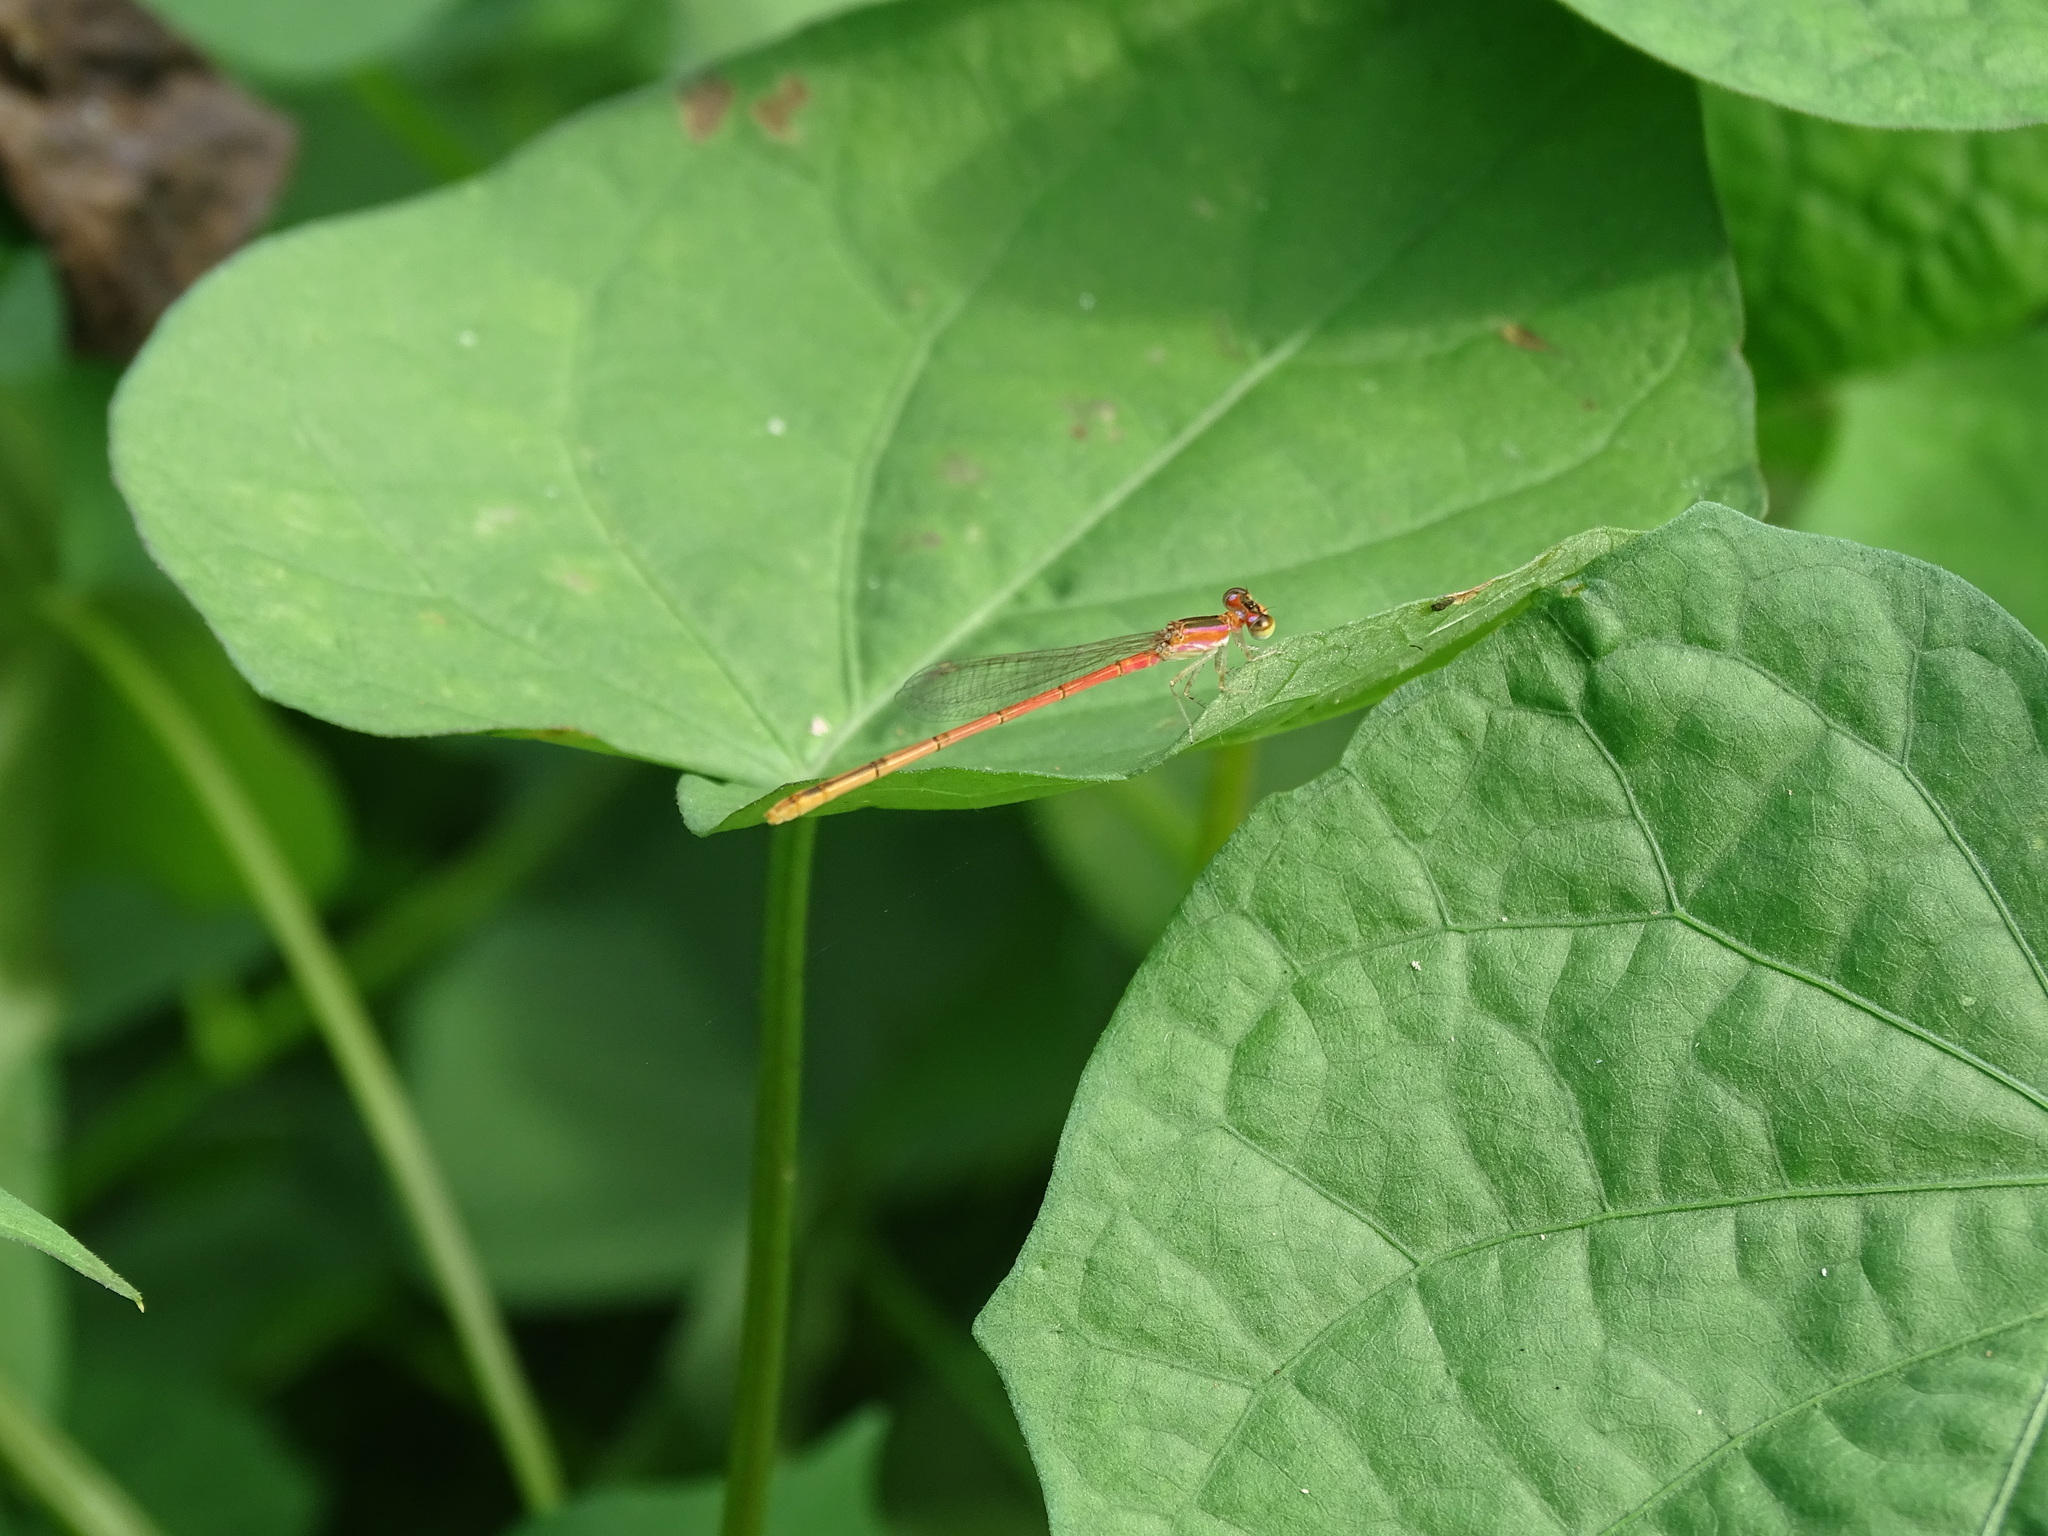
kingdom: Animalia
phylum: Arthropoda
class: Insecta
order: Odonata
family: Coenagrionidae
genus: Agriocnemis
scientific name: Agriocnemis pygmaea
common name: Pygmy wisp
